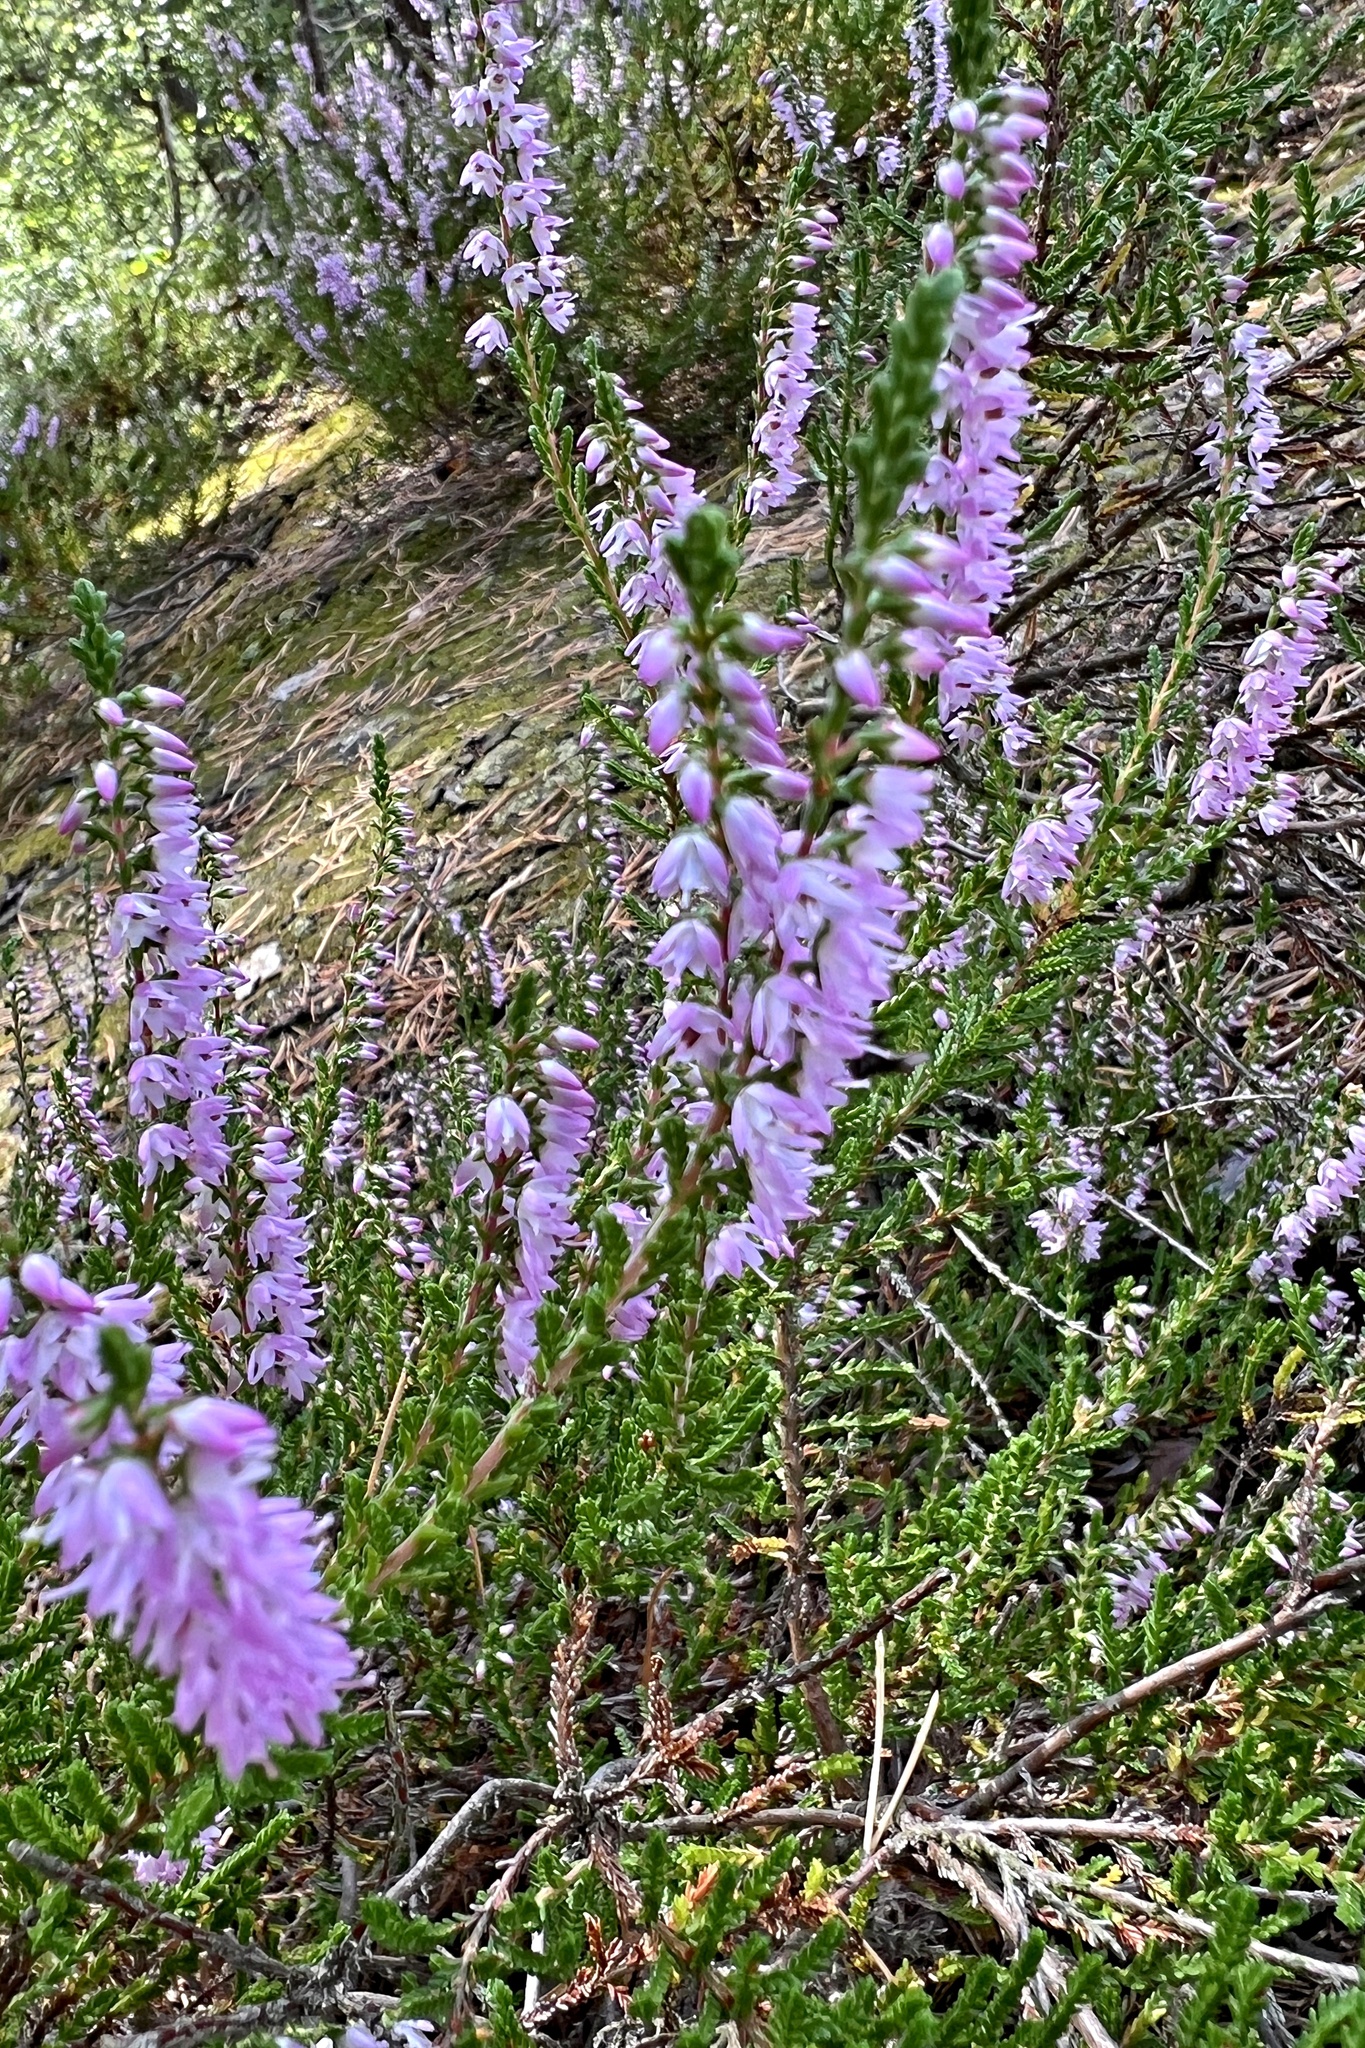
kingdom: Plantae
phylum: Tracheophyta
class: Magnoliopsida
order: Ericales
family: Ericaceae
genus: Calluna
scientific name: Calluna vulgaris
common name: Heather
